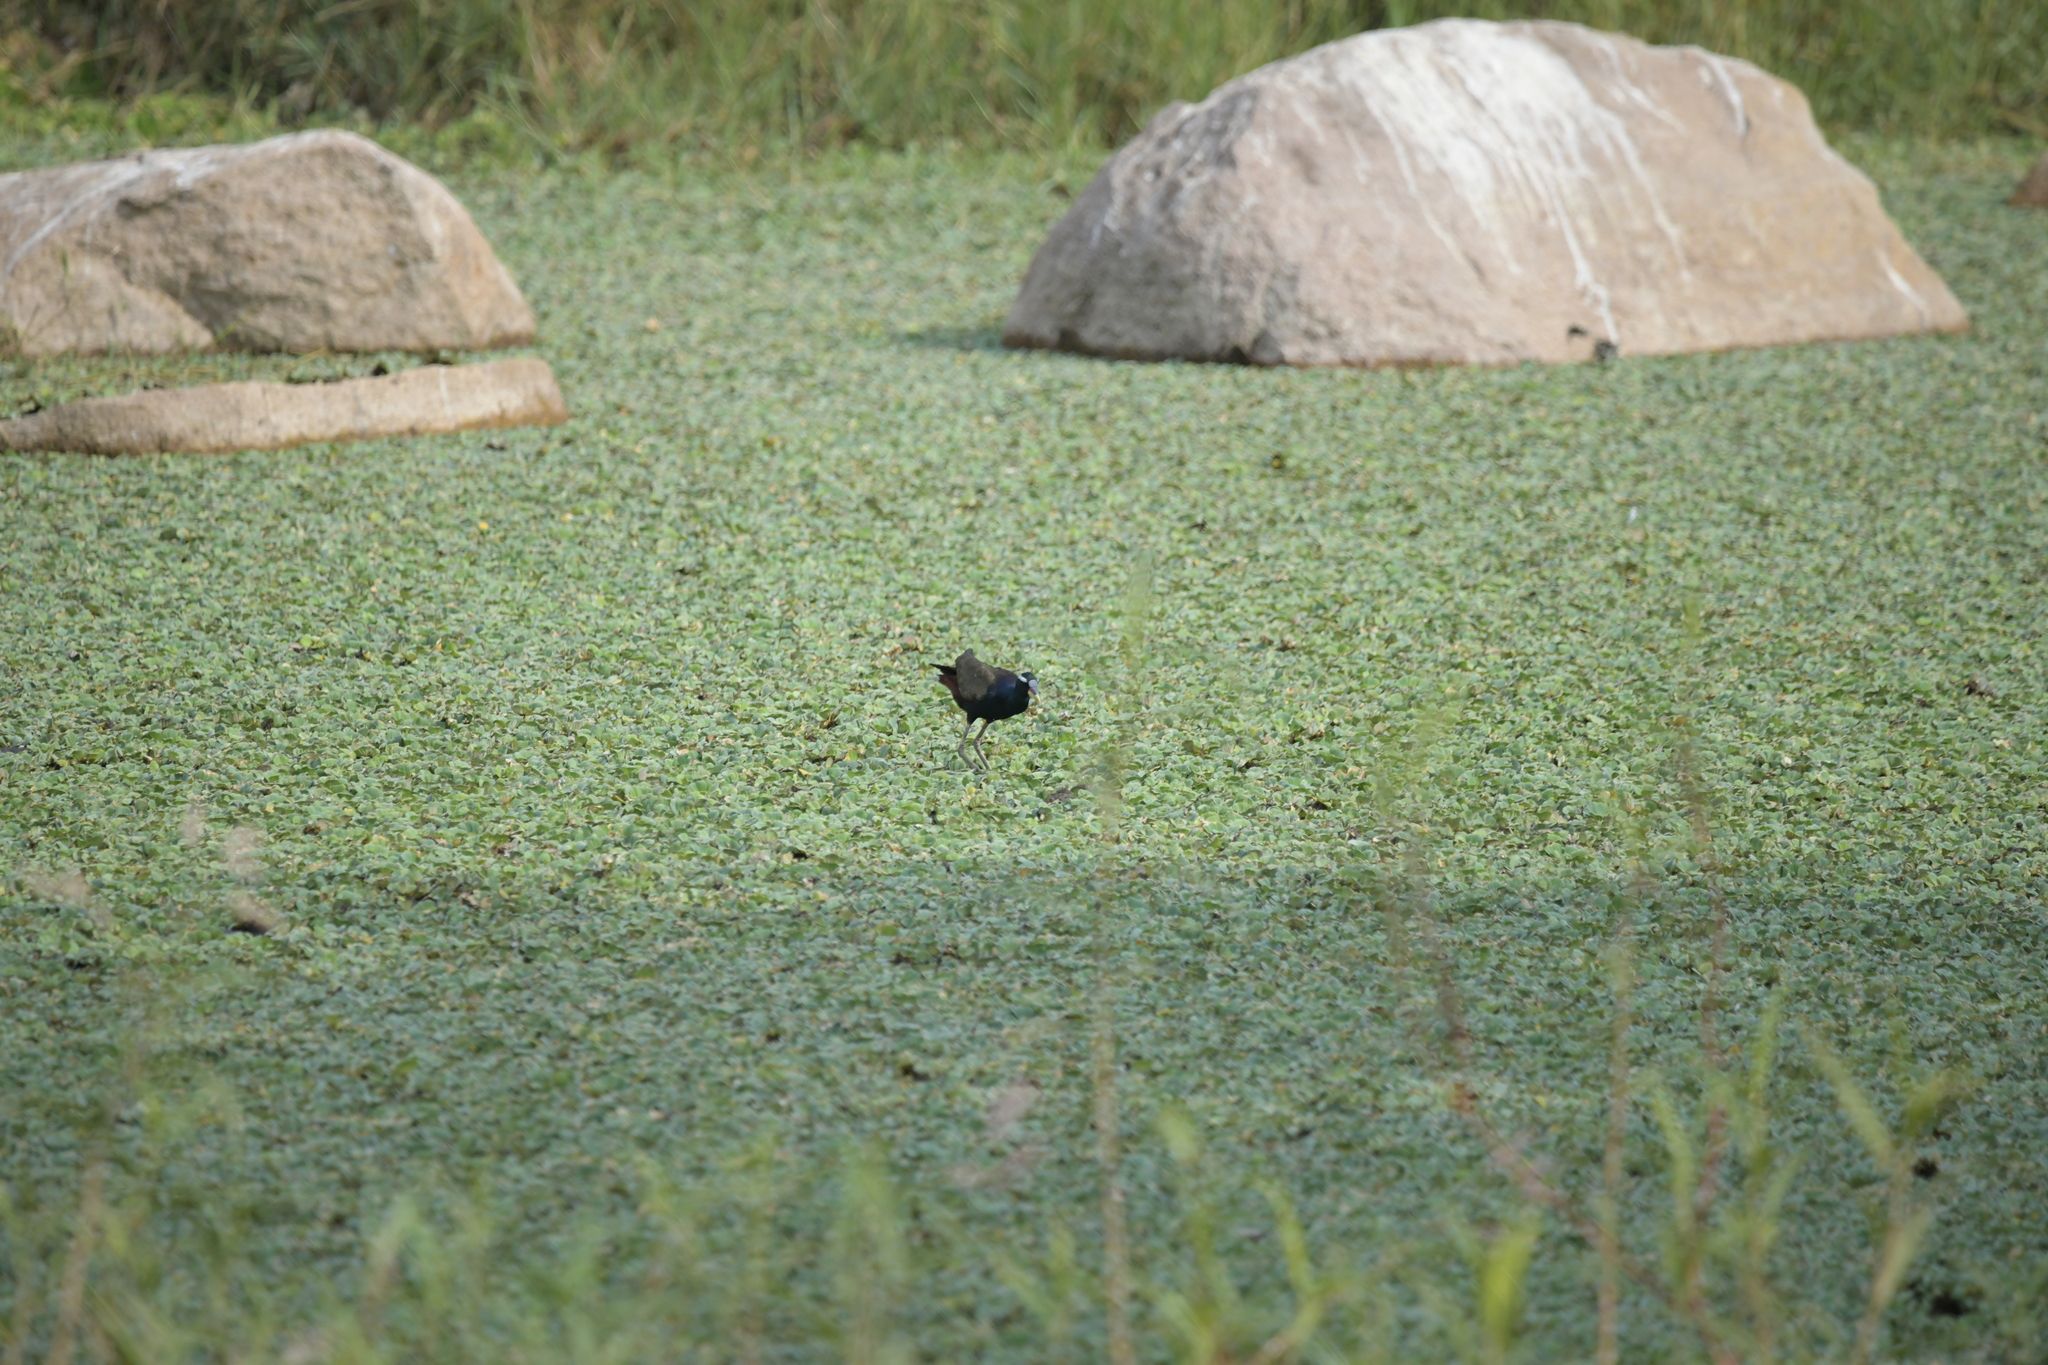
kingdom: Animalia
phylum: Chordata
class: Aves
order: Charadriiformes
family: Jacanidae
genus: Metopidius
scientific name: Metopidius indicus
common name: Bronze-winged jacana
